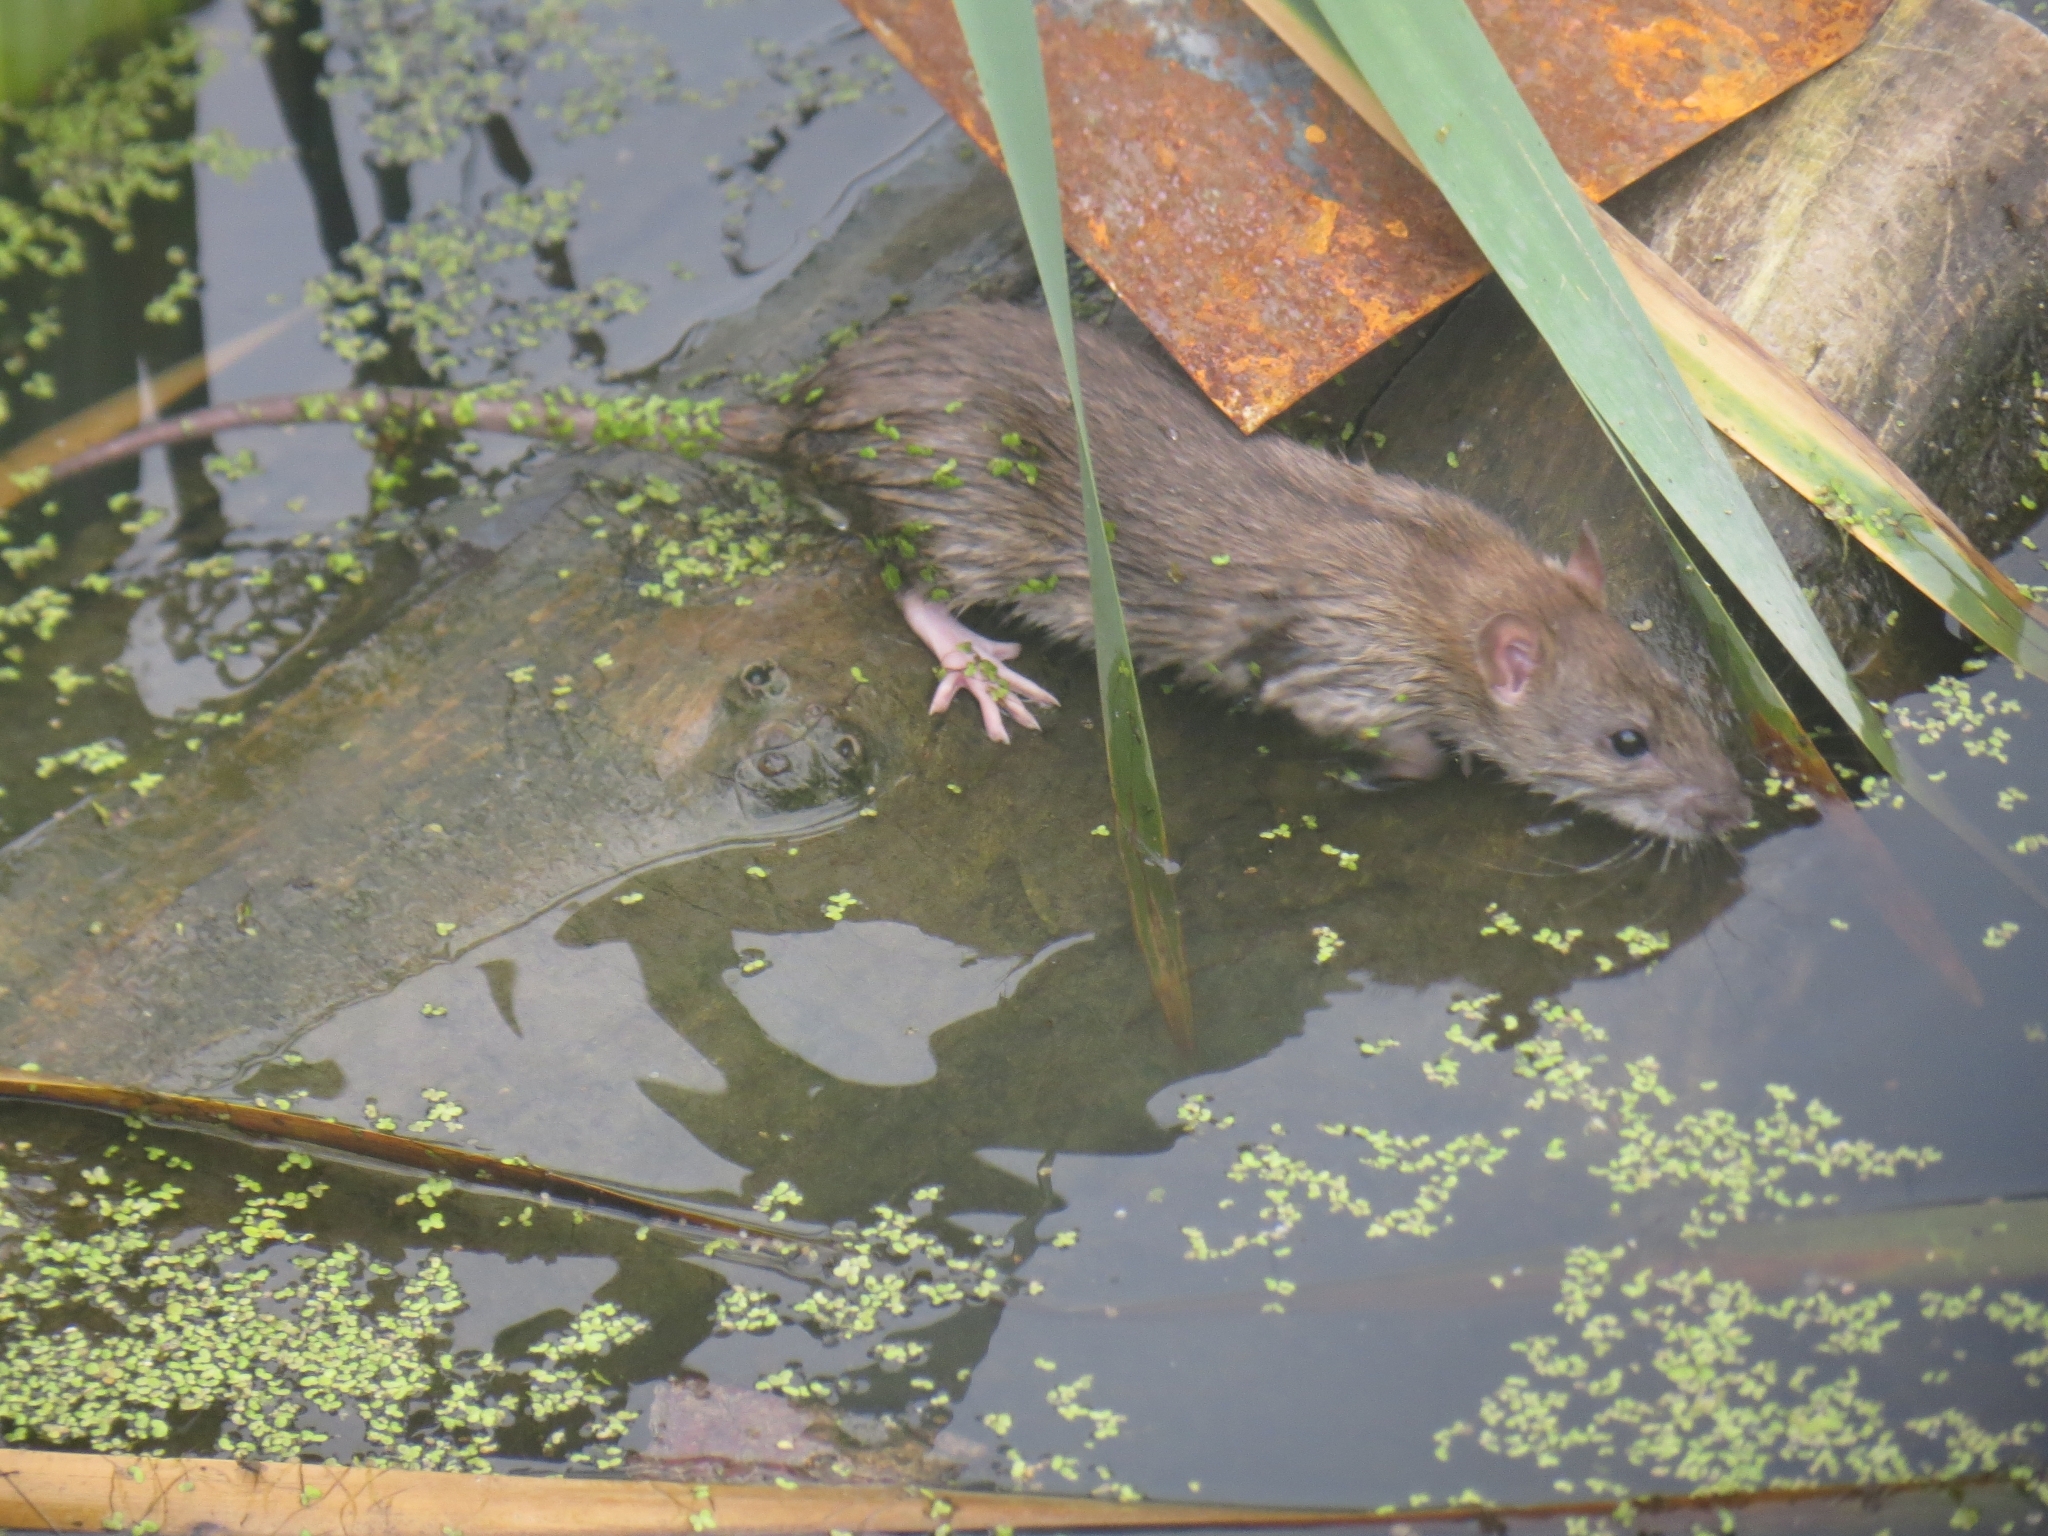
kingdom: Animalia
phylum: Chordata
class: Mammalia
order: Rodentia
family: Muridae
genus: Rattus
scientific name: Rattus norvegicus
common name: Brown rat
